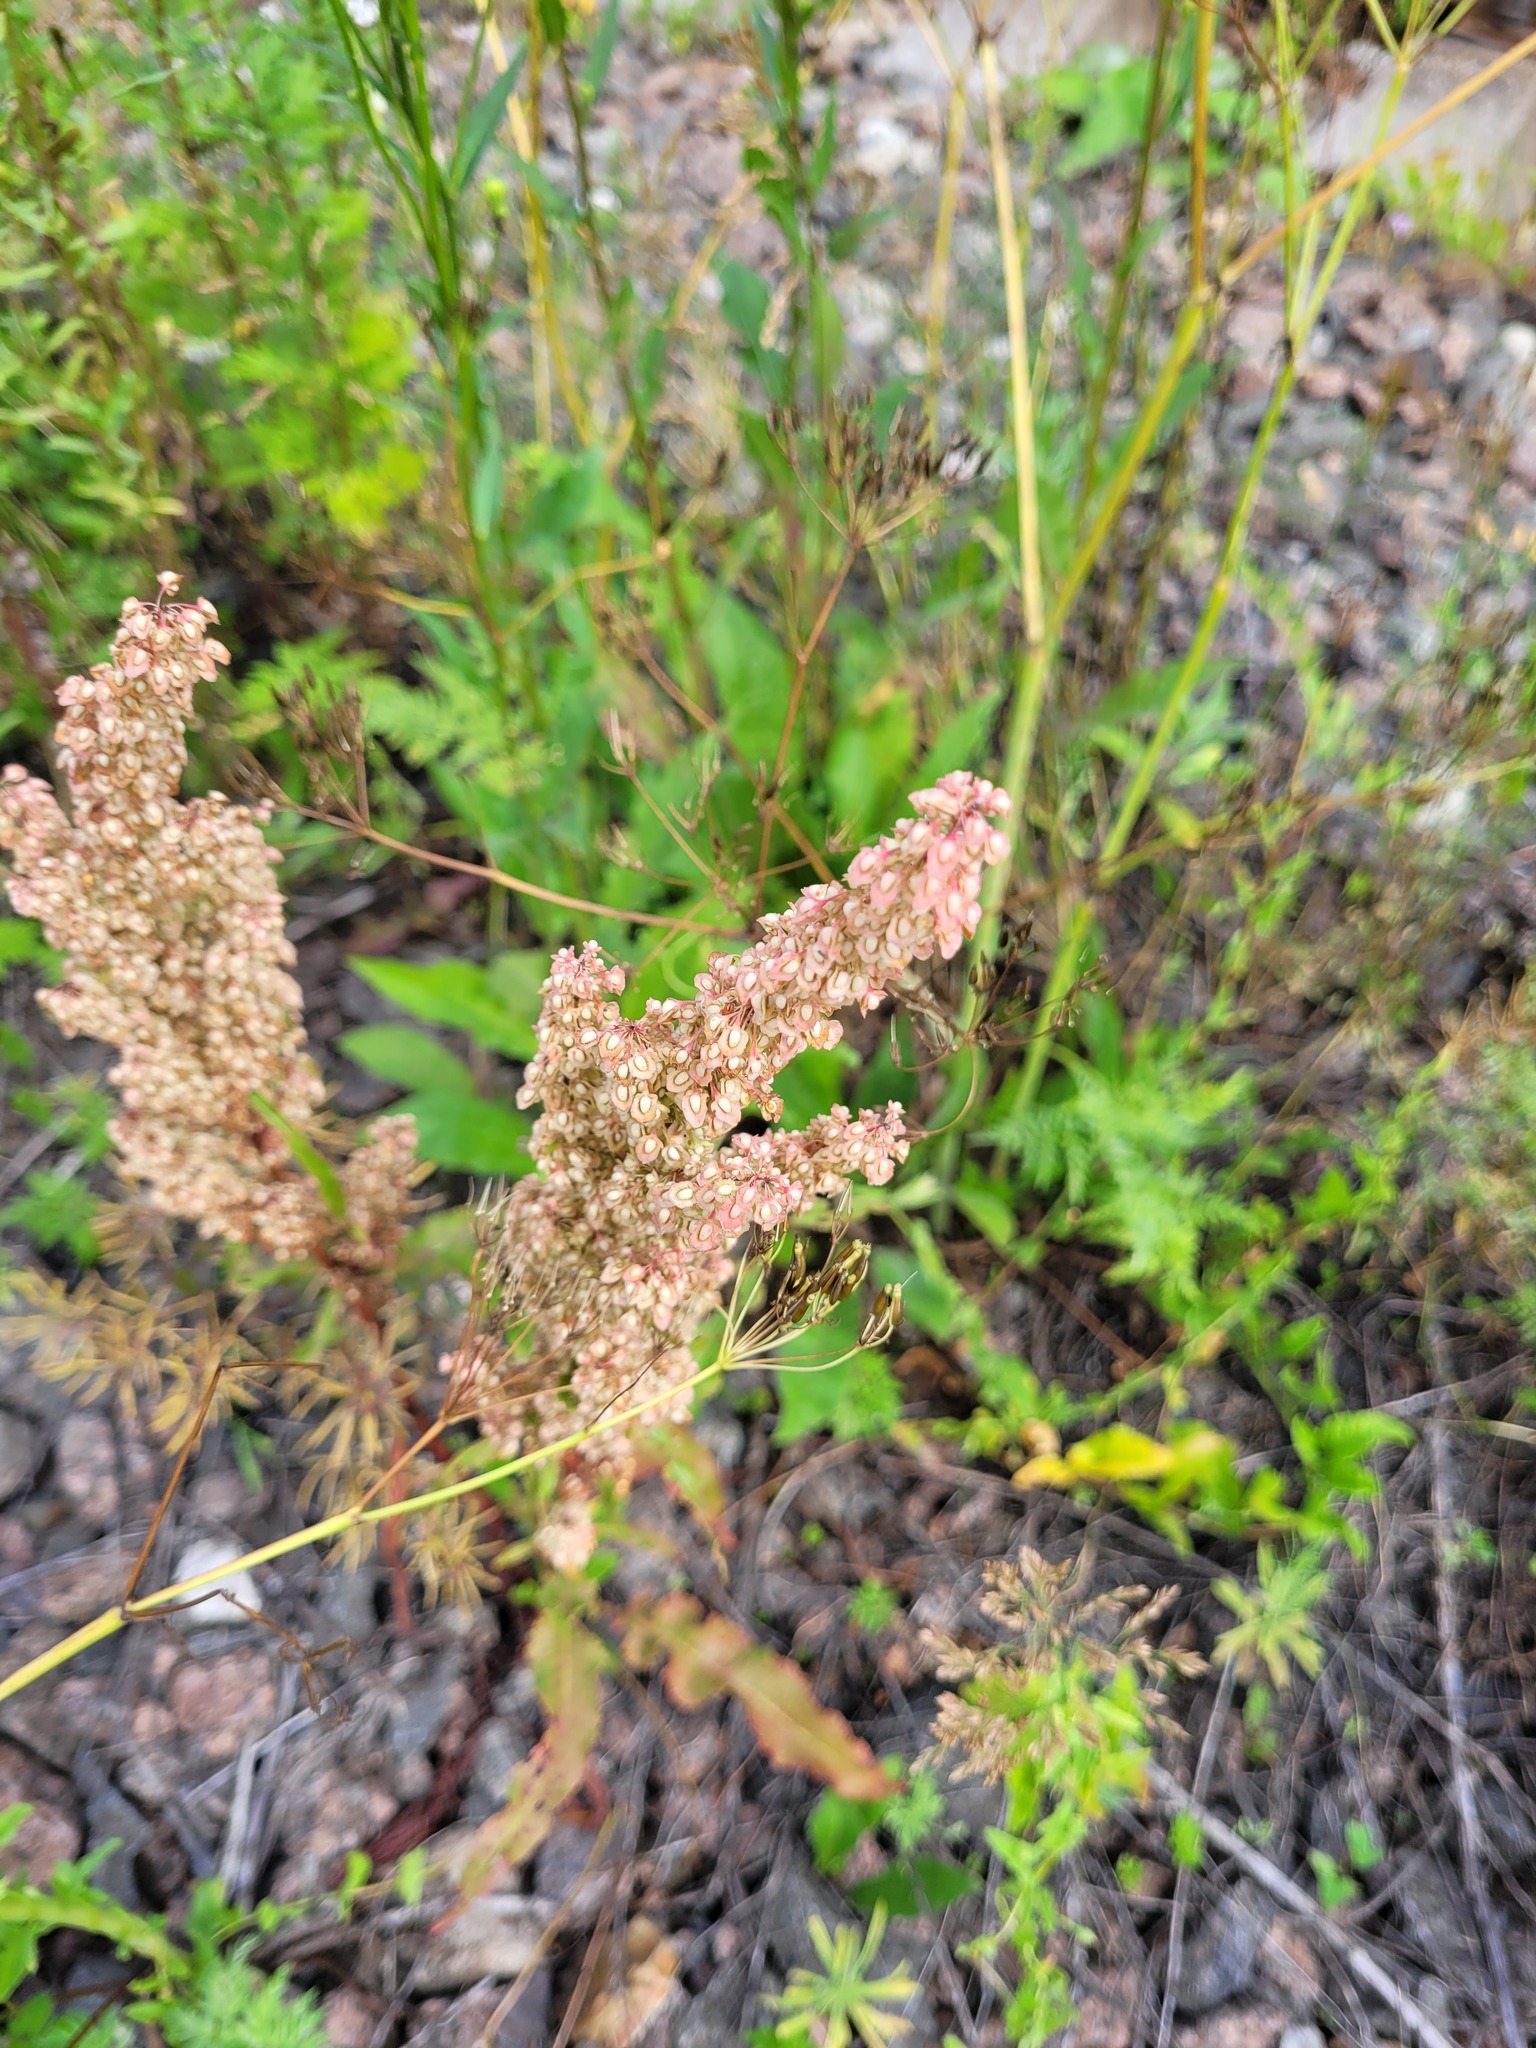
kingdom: Plantae
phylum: Tracheophyta
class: Magnoliopsida
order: Caryophyllales
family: Polygonaceae
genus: Rumex
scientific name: Rumex crispus
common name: Curled dock
